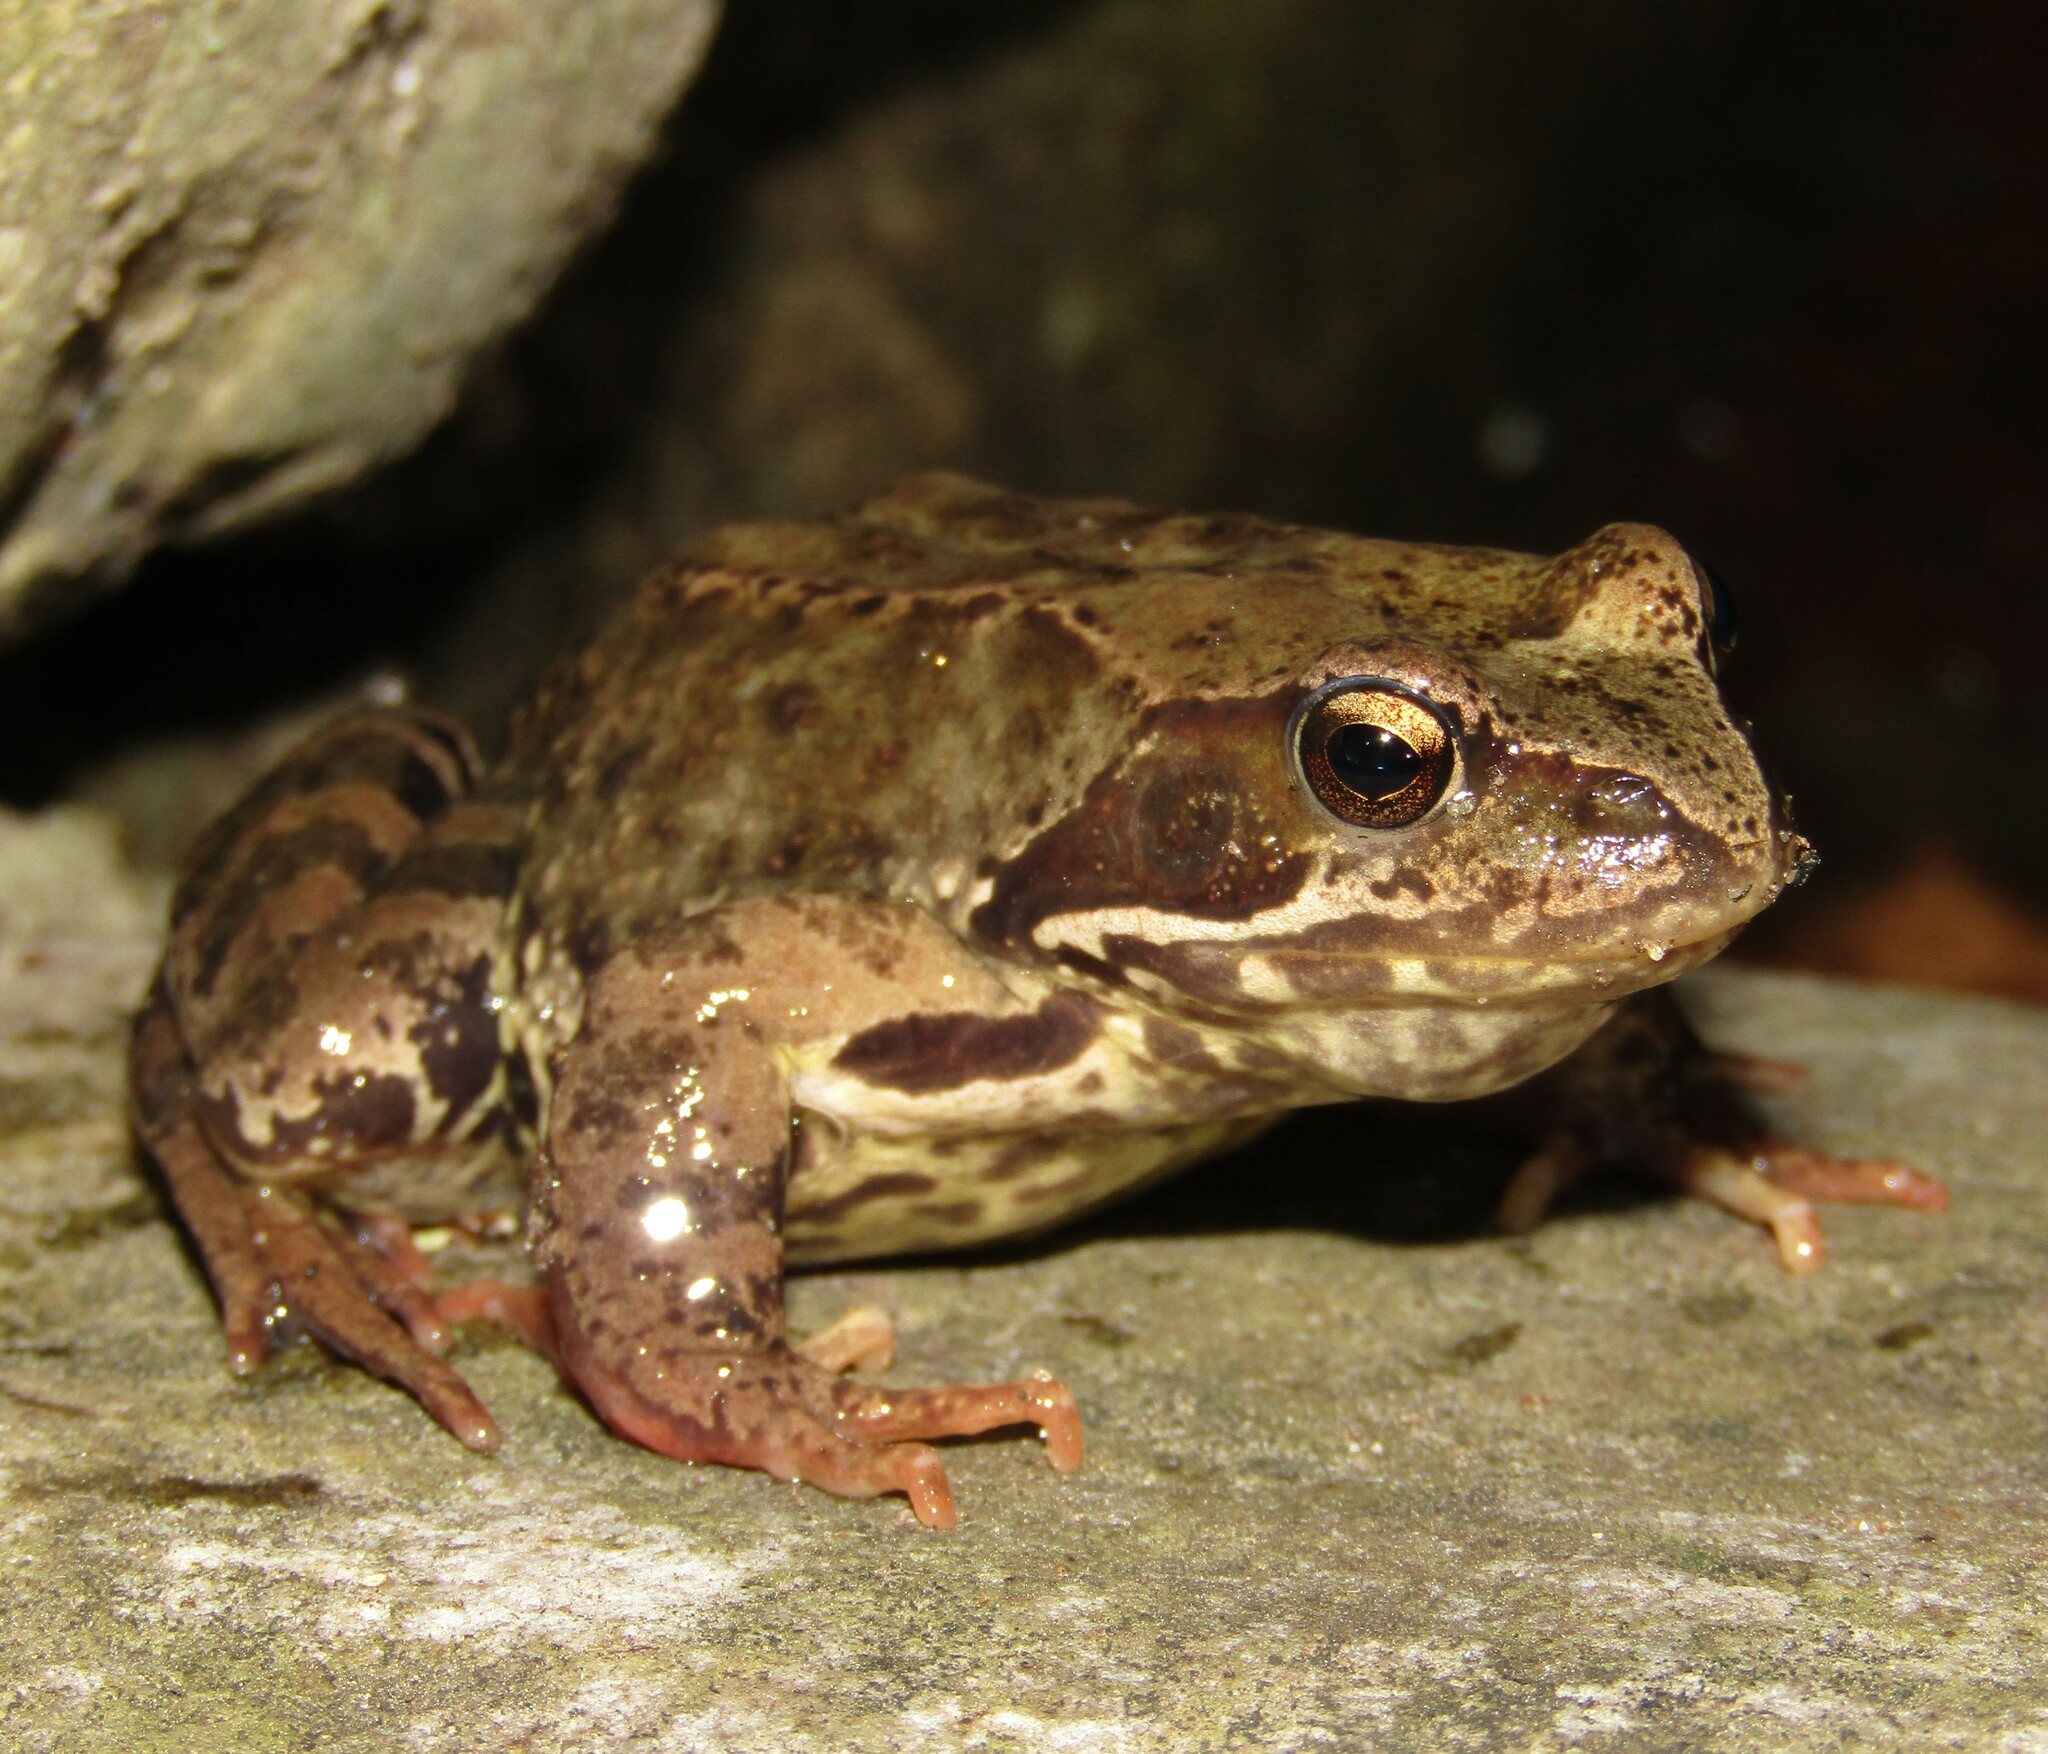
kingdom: Animalia
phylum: Chordata
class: Amphibia
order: Anura
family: Ranidae
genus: Rana
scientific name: Rana temporaria
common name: Common frog
